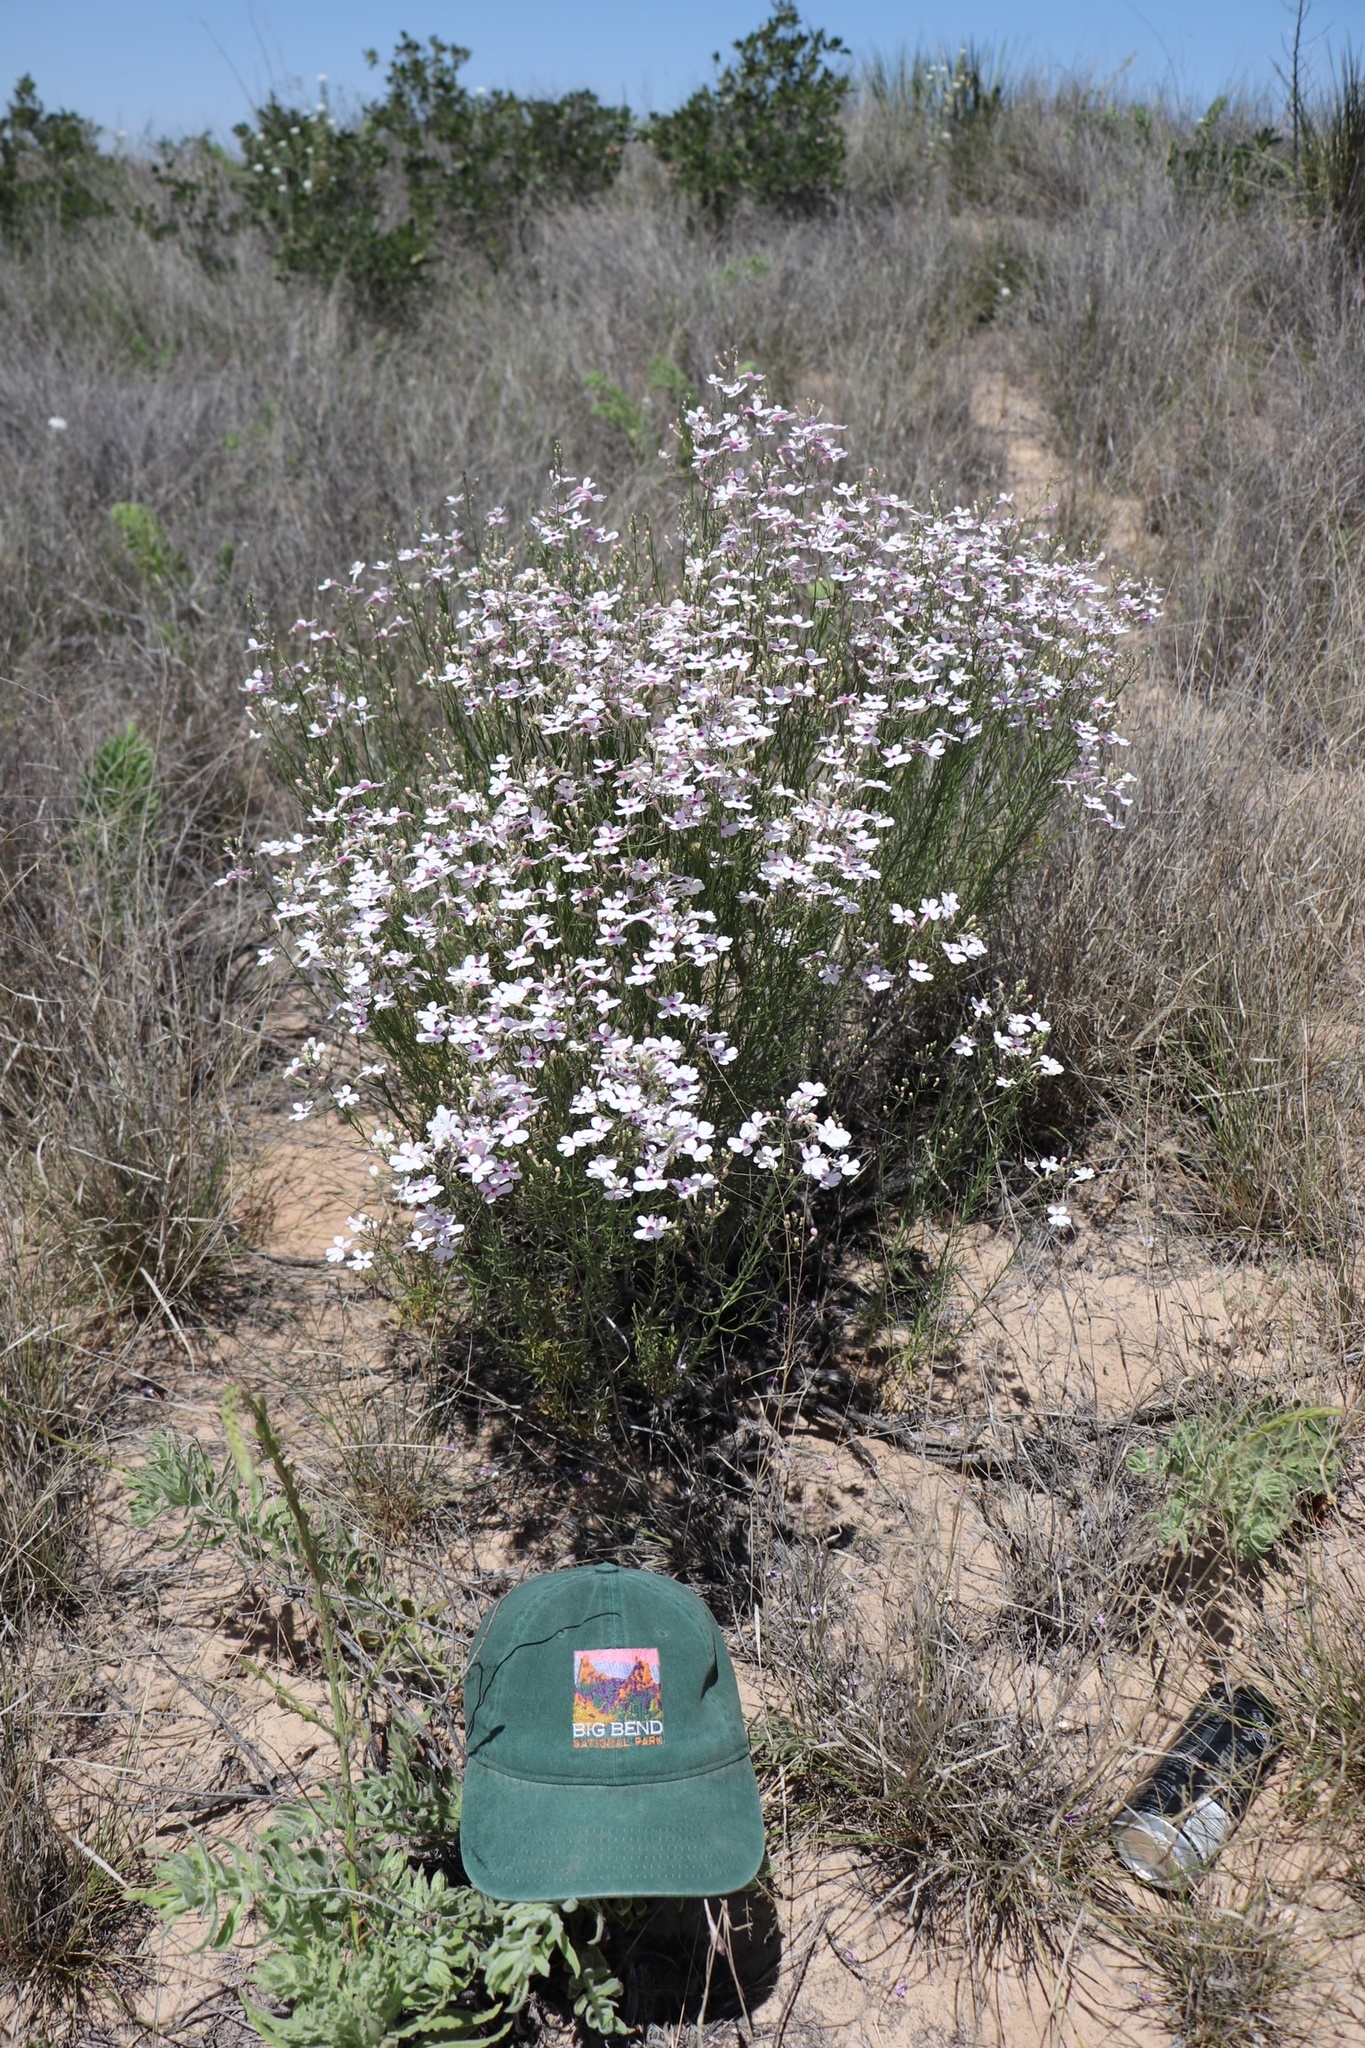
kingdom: Plantae
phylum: Tracheophyta
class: Magnoliopsida
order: Lamiales
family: Plantaginaceae
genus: Penstemon
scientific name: Penstemon ambiguus
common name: Bush penstemon
